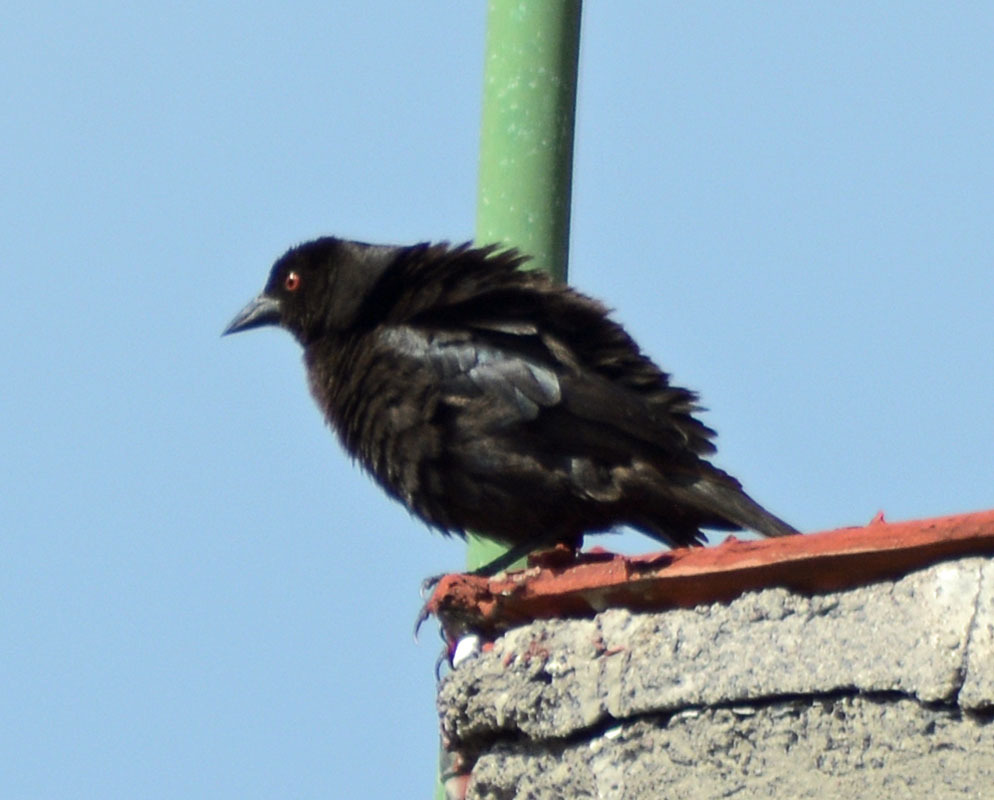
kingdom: Animalia
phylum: Chordata
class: Aves
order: Passeriformes
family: Icteridae
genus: Molothrus
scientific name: Molothrus aeneus
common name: Bronzed cowbird
